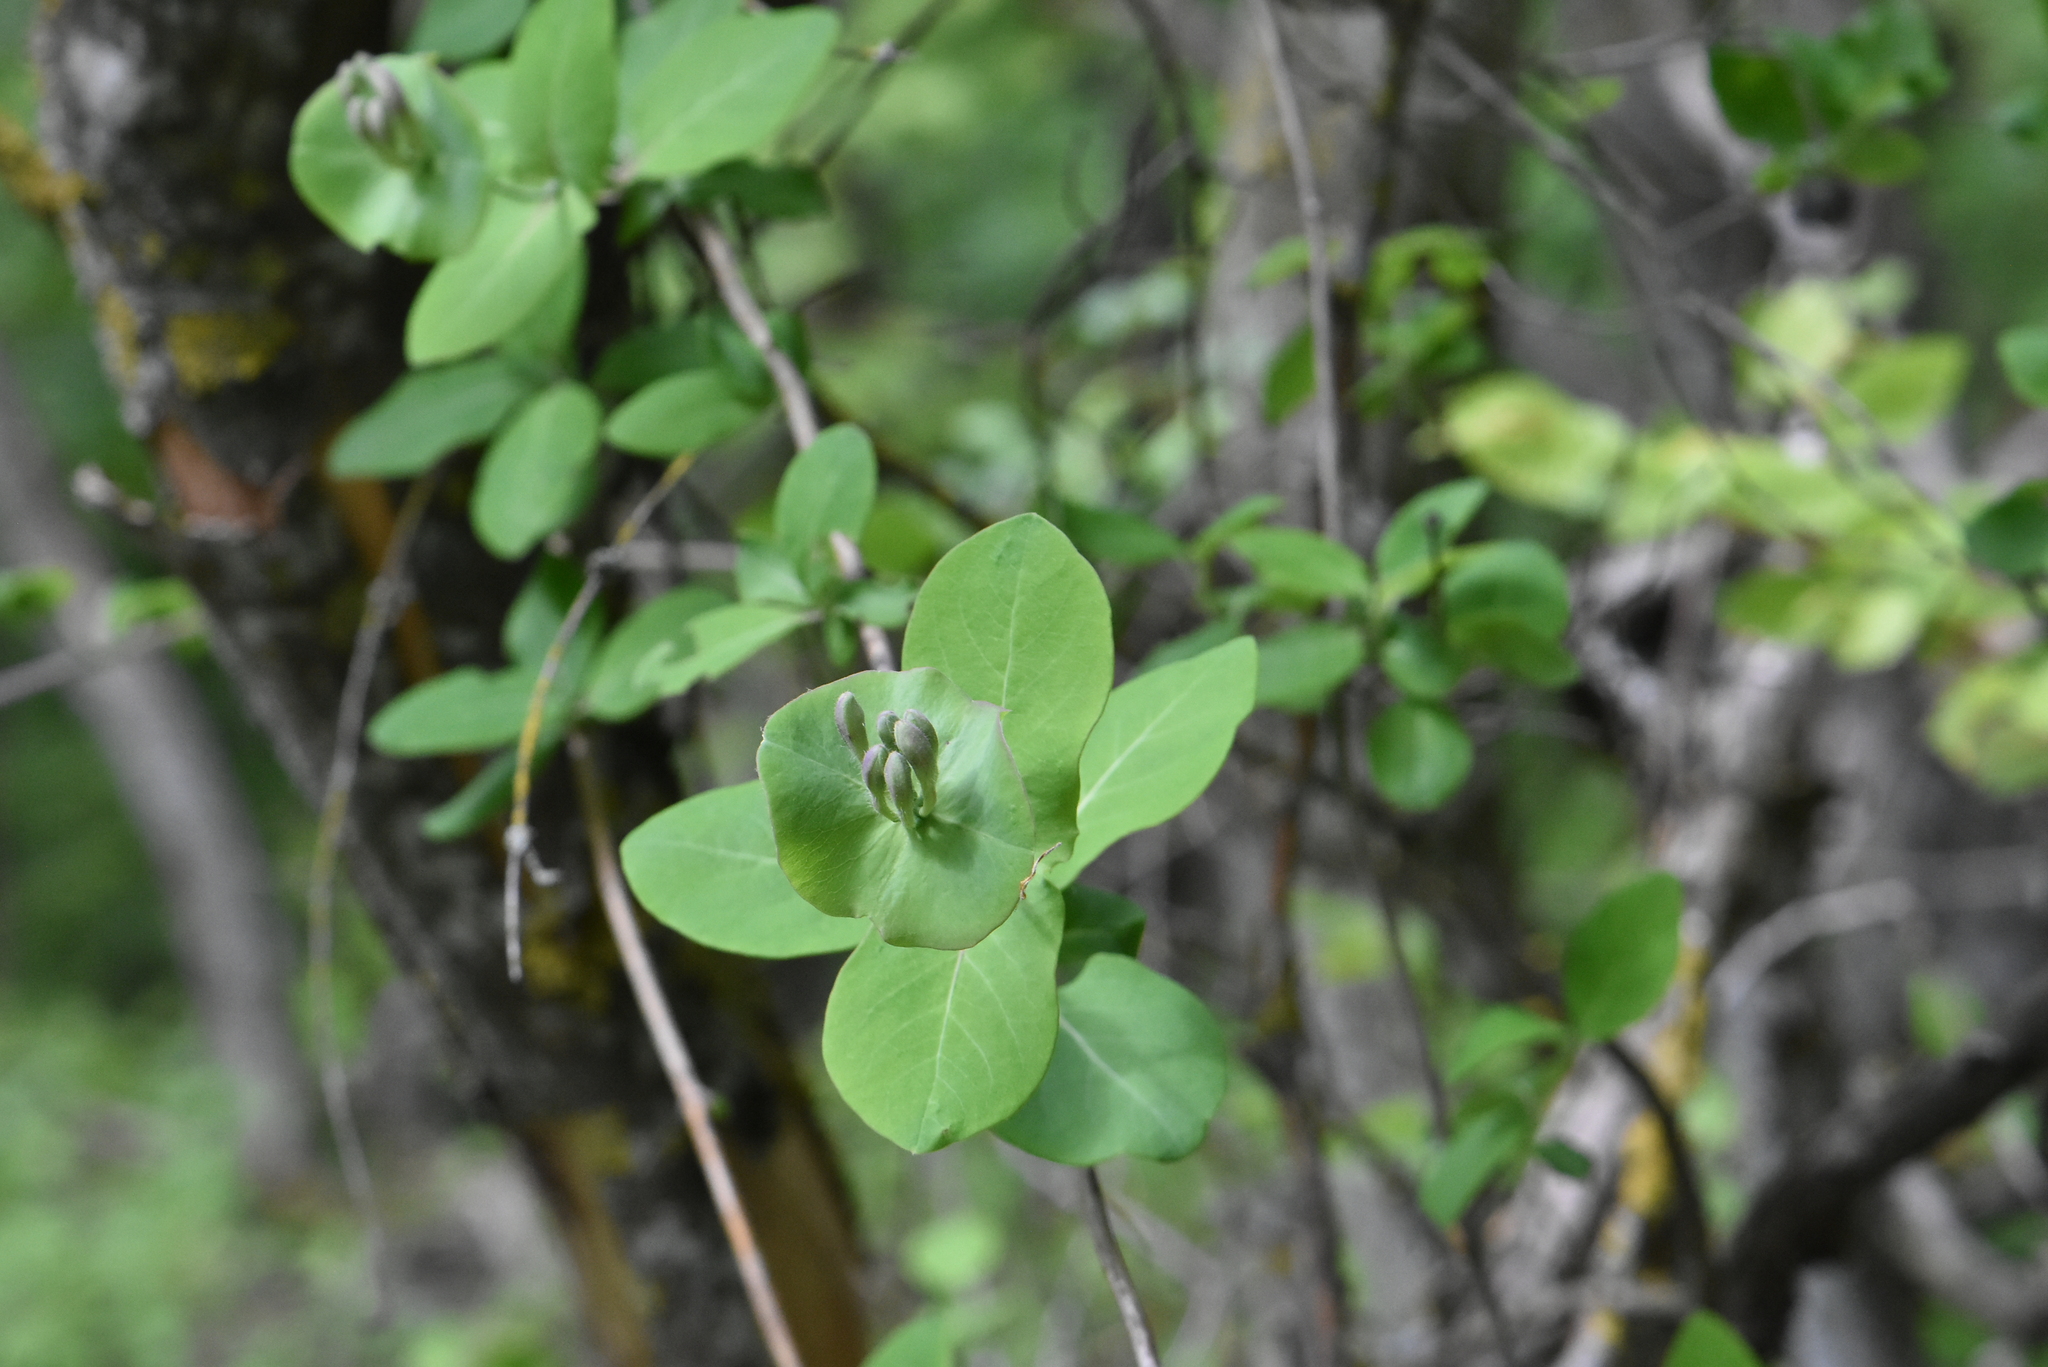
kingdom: Plantae
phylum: Tracheophyta
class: Magnoliopsida
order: Dipsacales
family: Caprifoliaceae
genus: Lonicera
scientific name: Lonicera caprifolium
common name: Perfoliate honeysuckle
